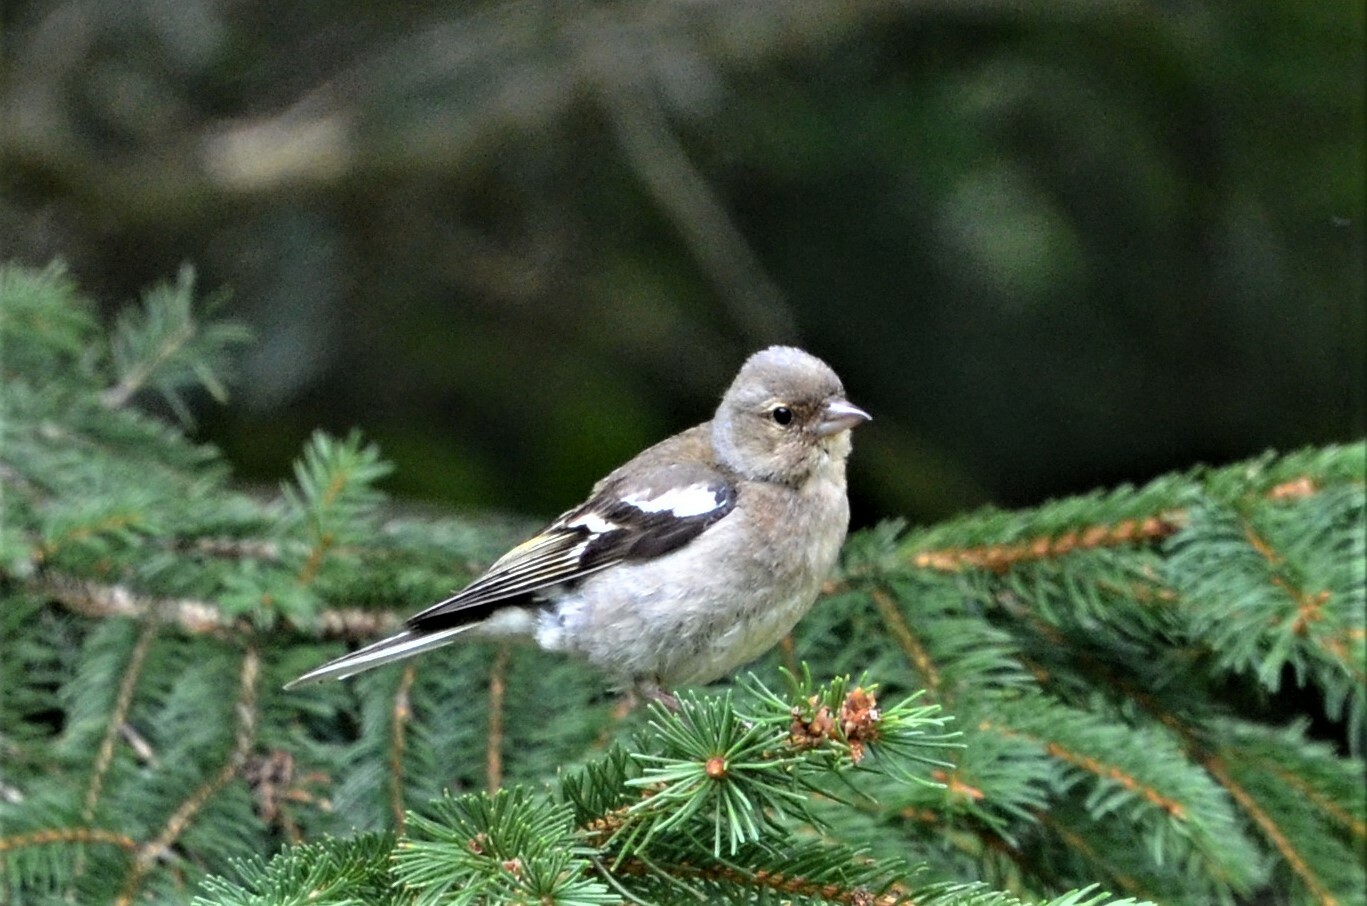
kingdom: Animalia
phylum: Chordata
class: Aves
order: Passeriformes
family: Fringillidae
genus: Fringilla
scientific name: Fringilla coelebs
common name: Common chaffinch
